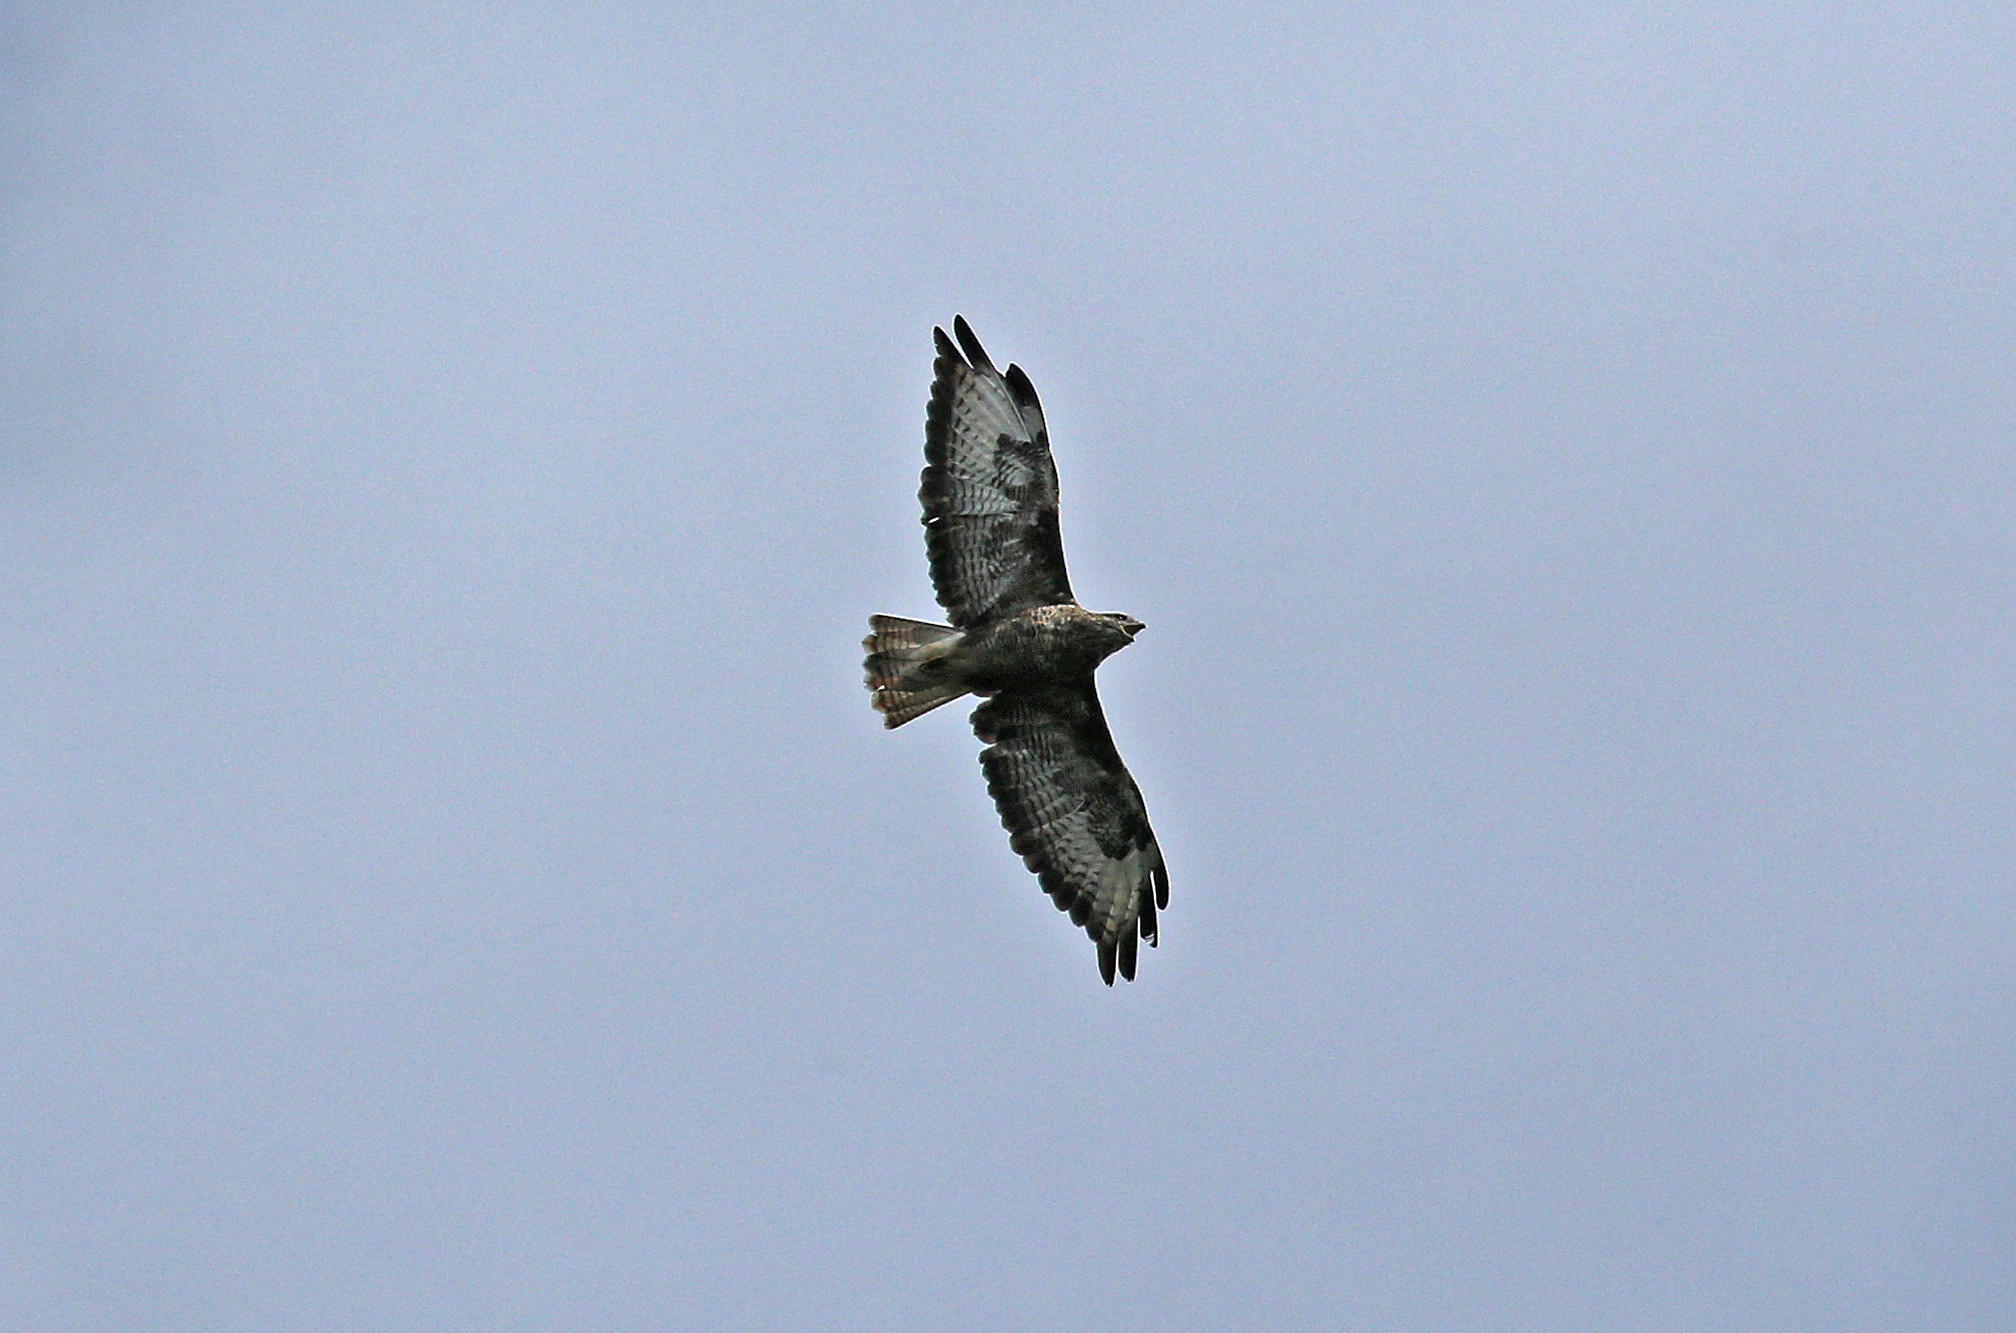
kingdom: Animalia
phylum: Chordata
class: Aves
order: Accipitriformes
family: Accipitridae
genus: Buteo
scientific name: Buteo buteo
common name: Common buzzard
